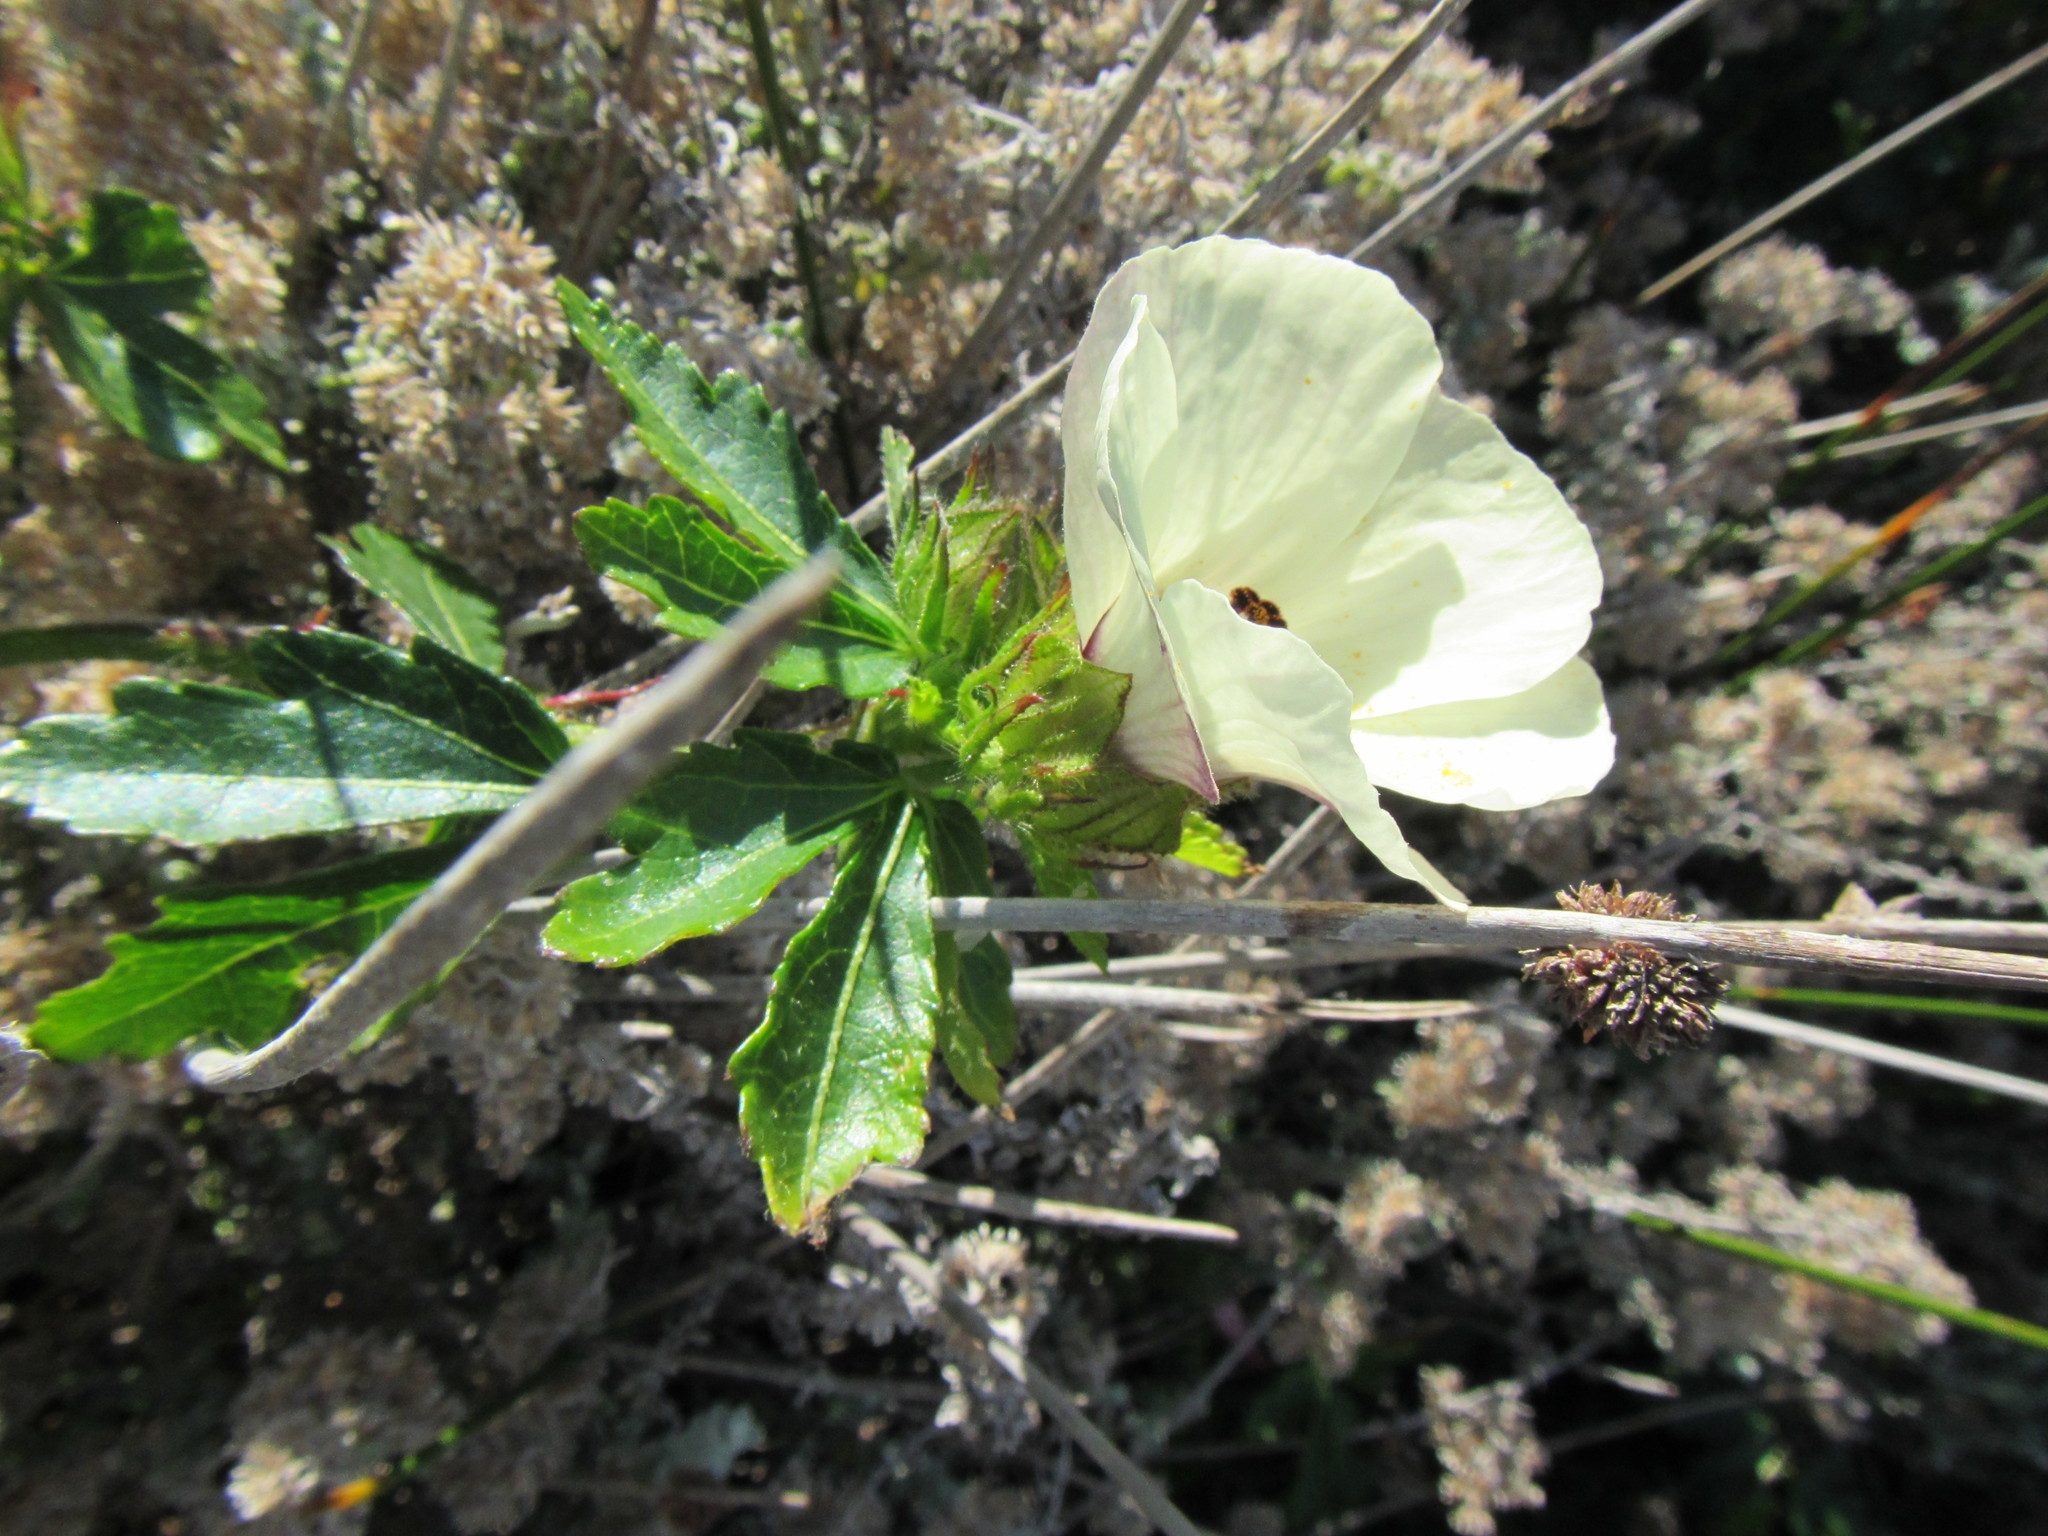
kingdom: Plantae
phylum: Tracheophyta
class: Magnoliopsida
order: Malvales
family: Malvaceae
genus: Hibiscus
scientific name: Hibiscus trionum
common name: Bladder ketmia
